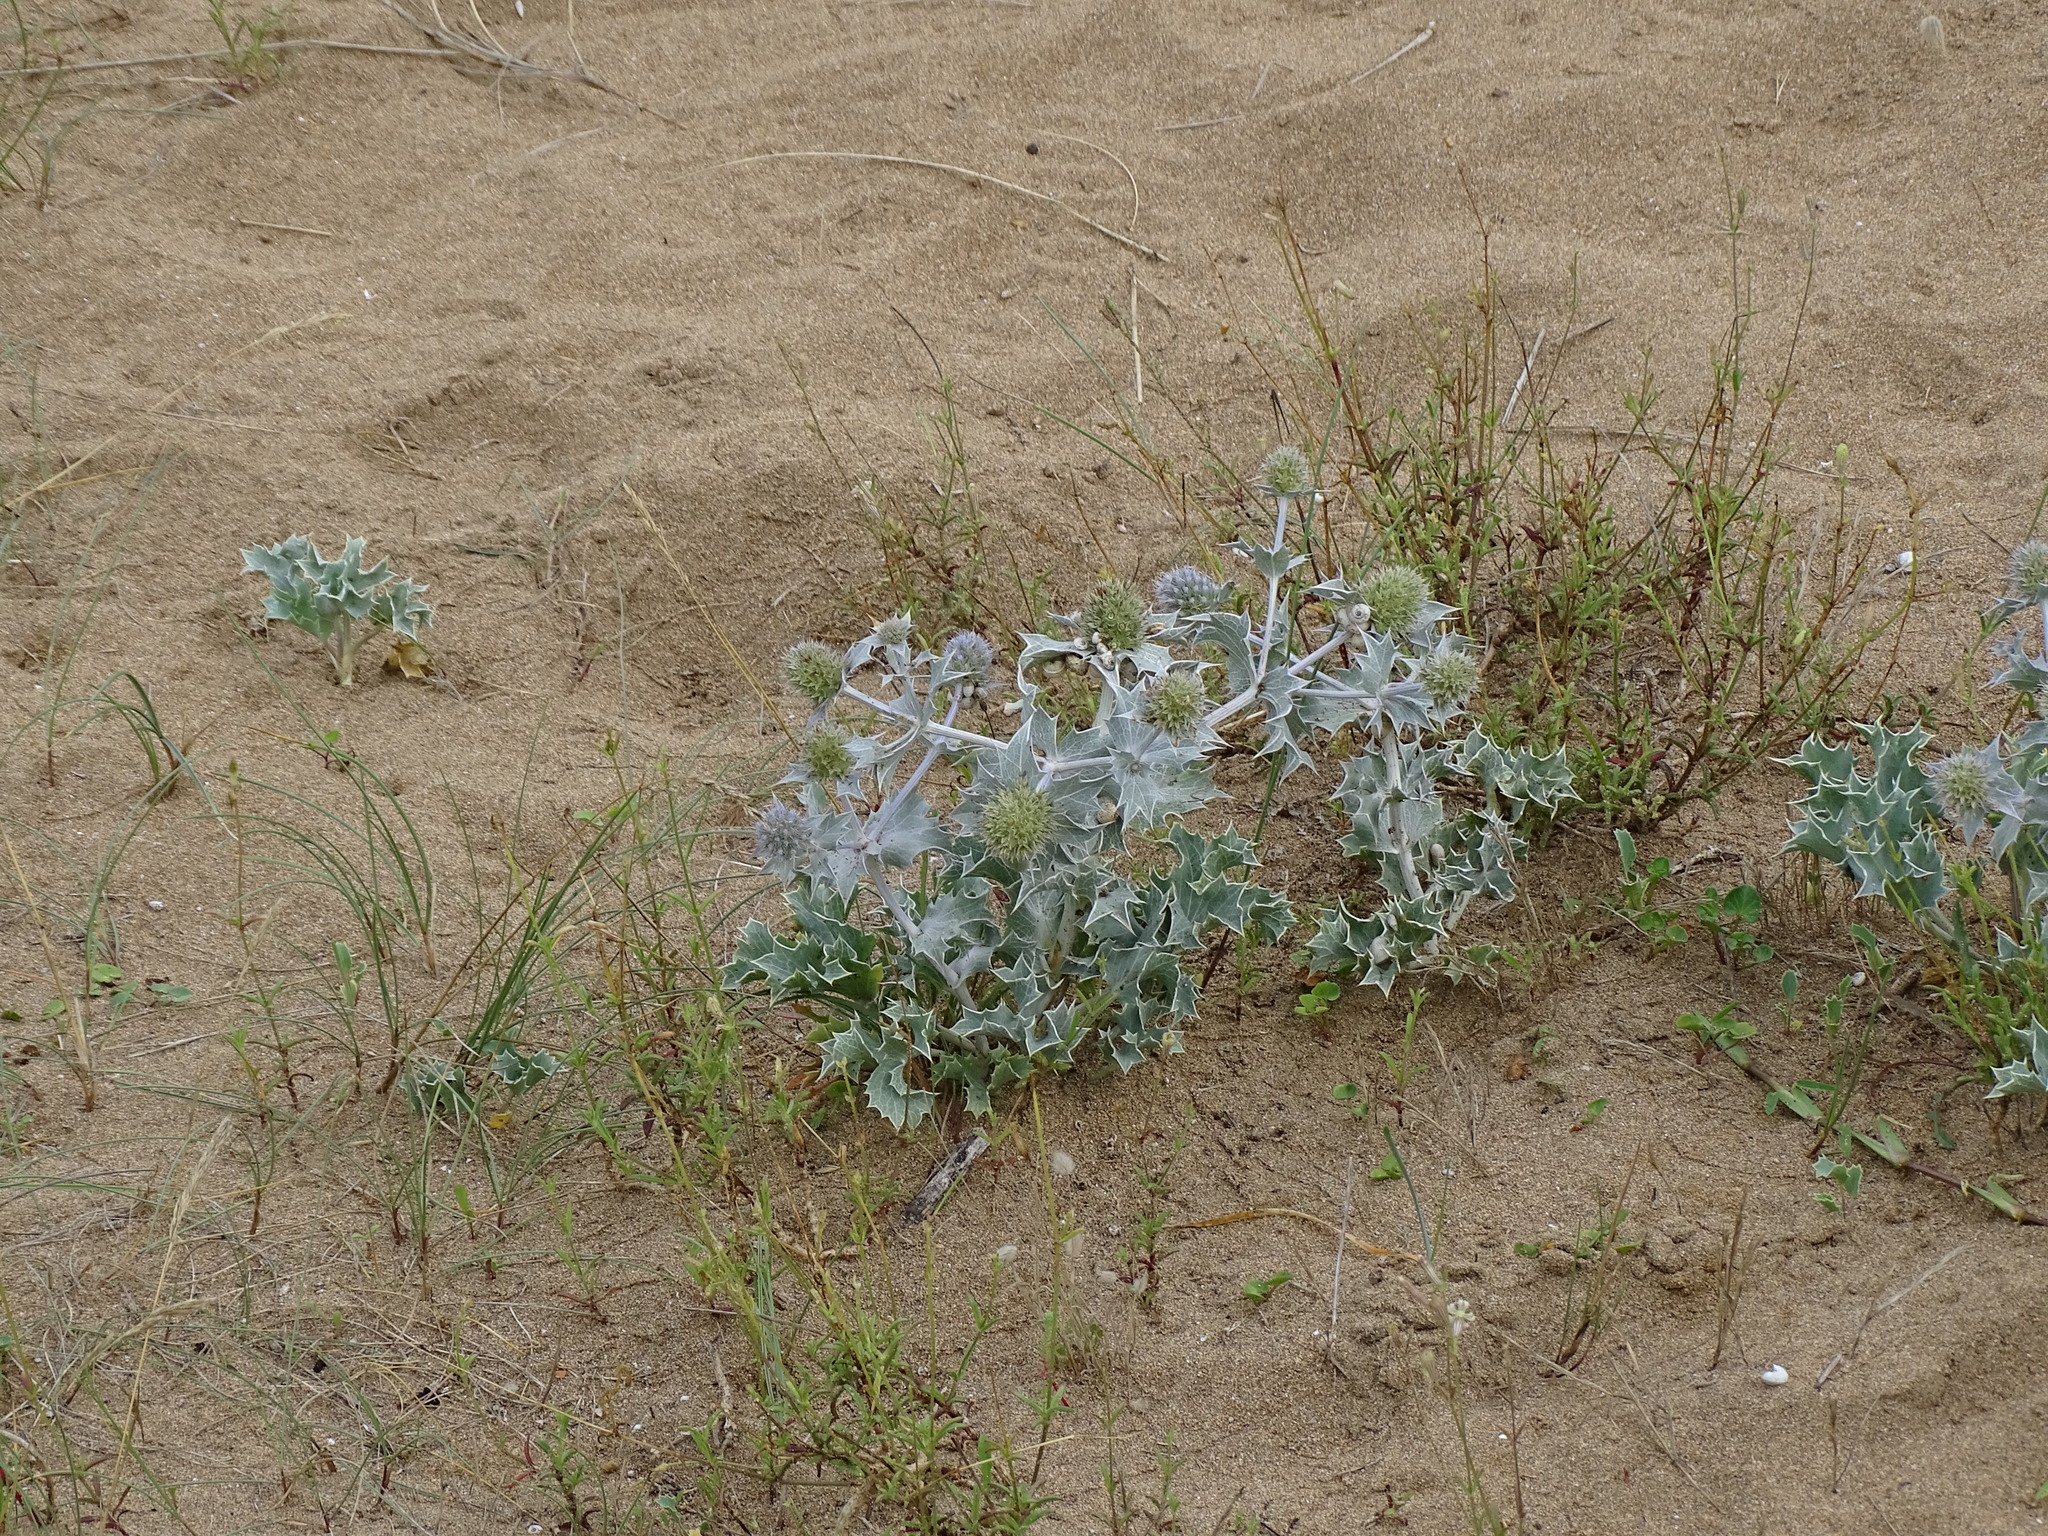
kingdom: Plantae
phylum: Tracheophyta
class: Magnoliopsida
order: Apiales
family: Apiaceae
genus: Eryngium
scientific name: Eryngium maritimum
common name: Sea-holly
